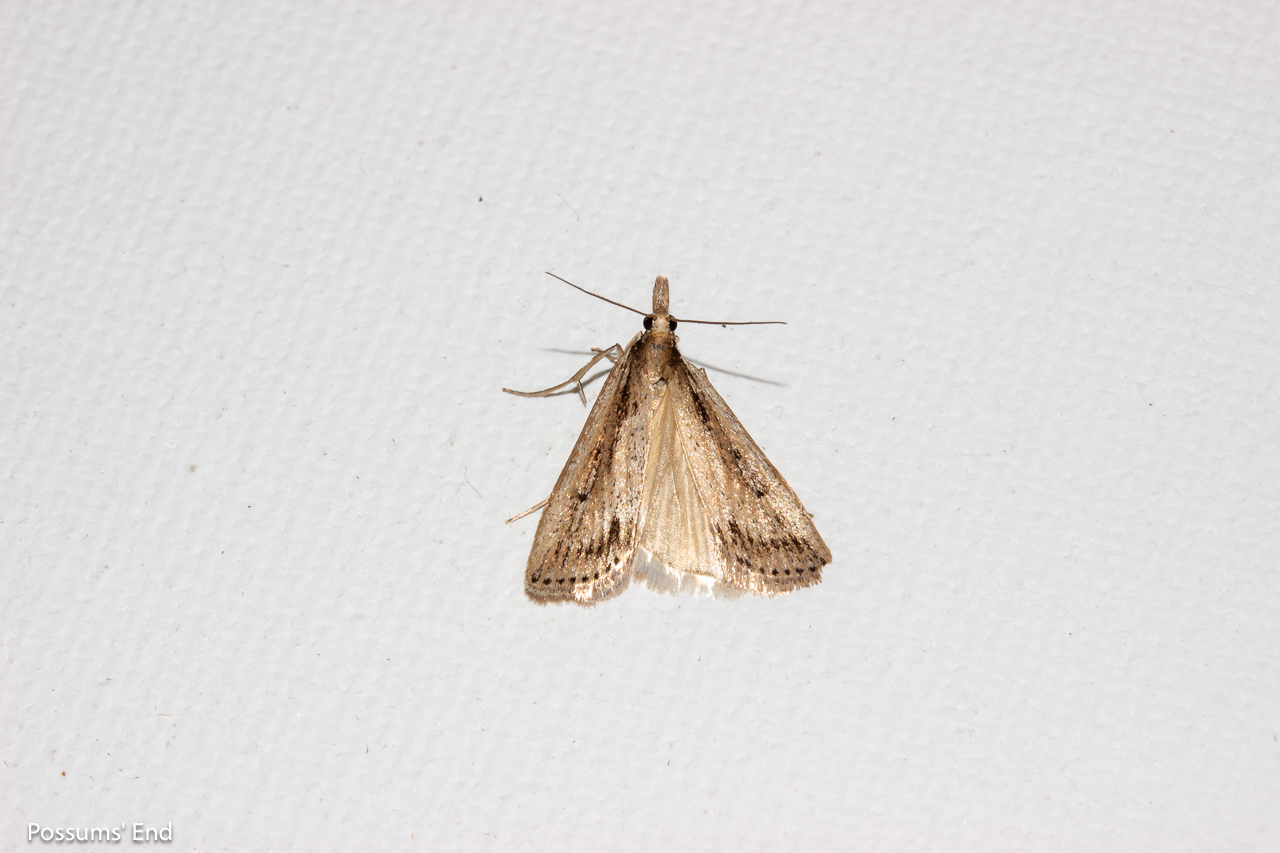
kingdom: Animalia
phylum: Arthropoda
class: Insecta
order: Lepidoptera
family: Crambidae
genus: Eudonia
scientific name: Eudonia sabulosella
